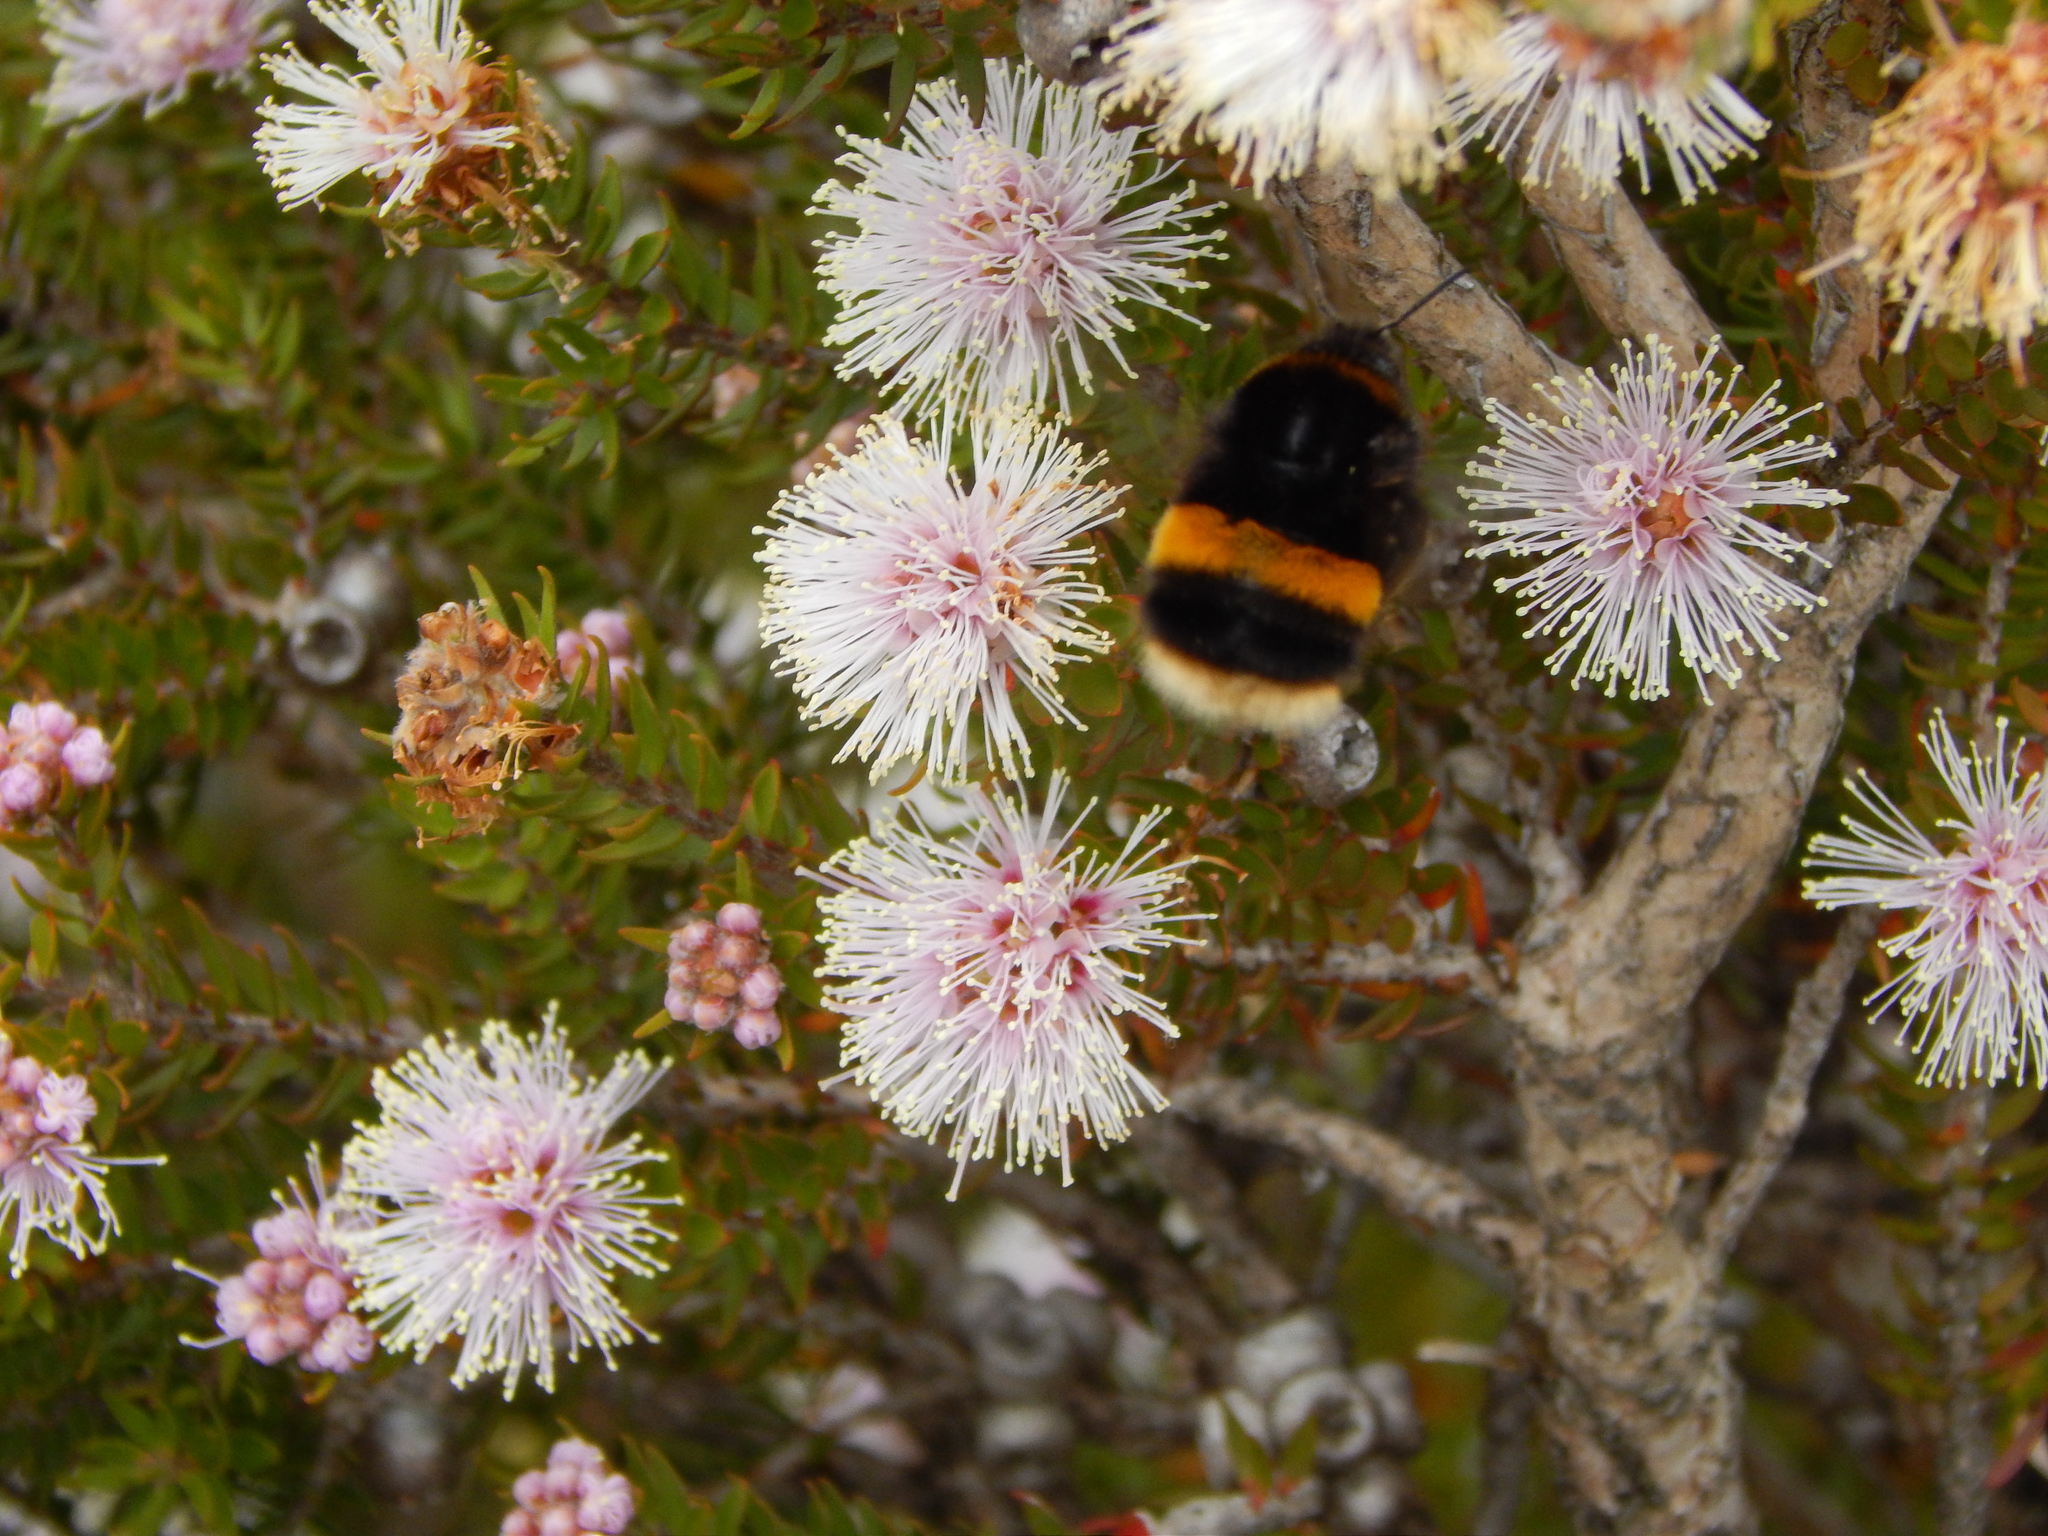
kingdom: Animalia
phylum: Arthropoda
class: Insecta
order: Hymenoptera
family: Apidae
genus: Bombus
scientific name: Bombus terrestris
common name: Buff-tailed bumblebee
